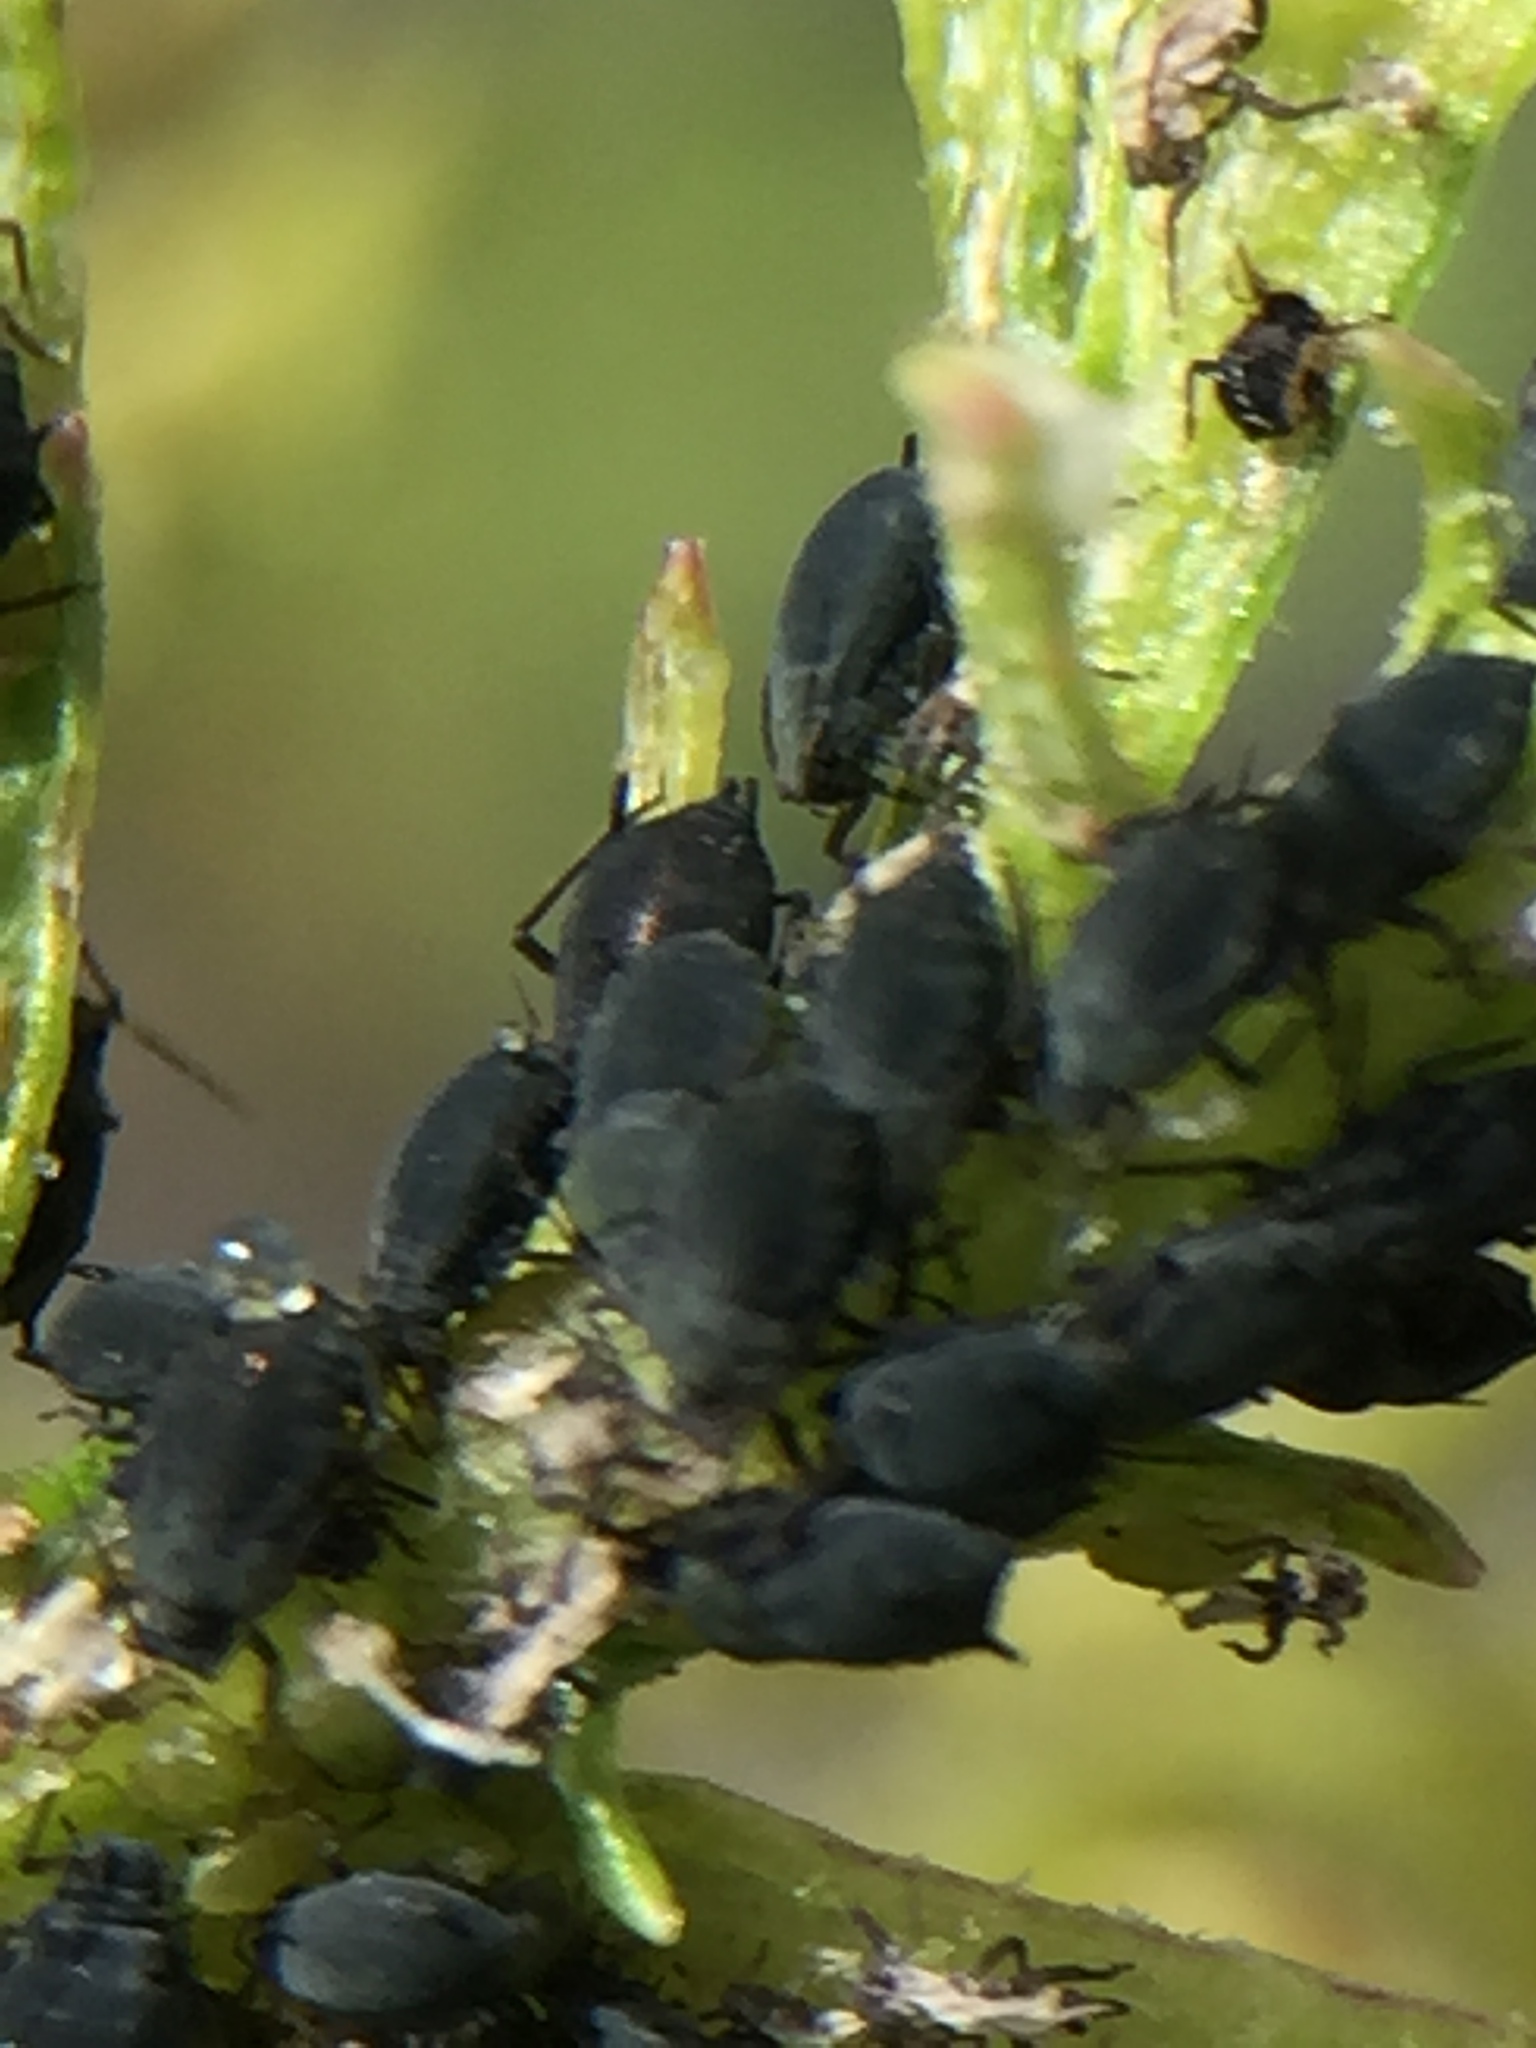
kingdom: Animalia
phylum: Arthropoda
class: Insecta
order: Hemiptera
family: Aphididae
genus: Aphis
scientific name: Aphis lugentis
